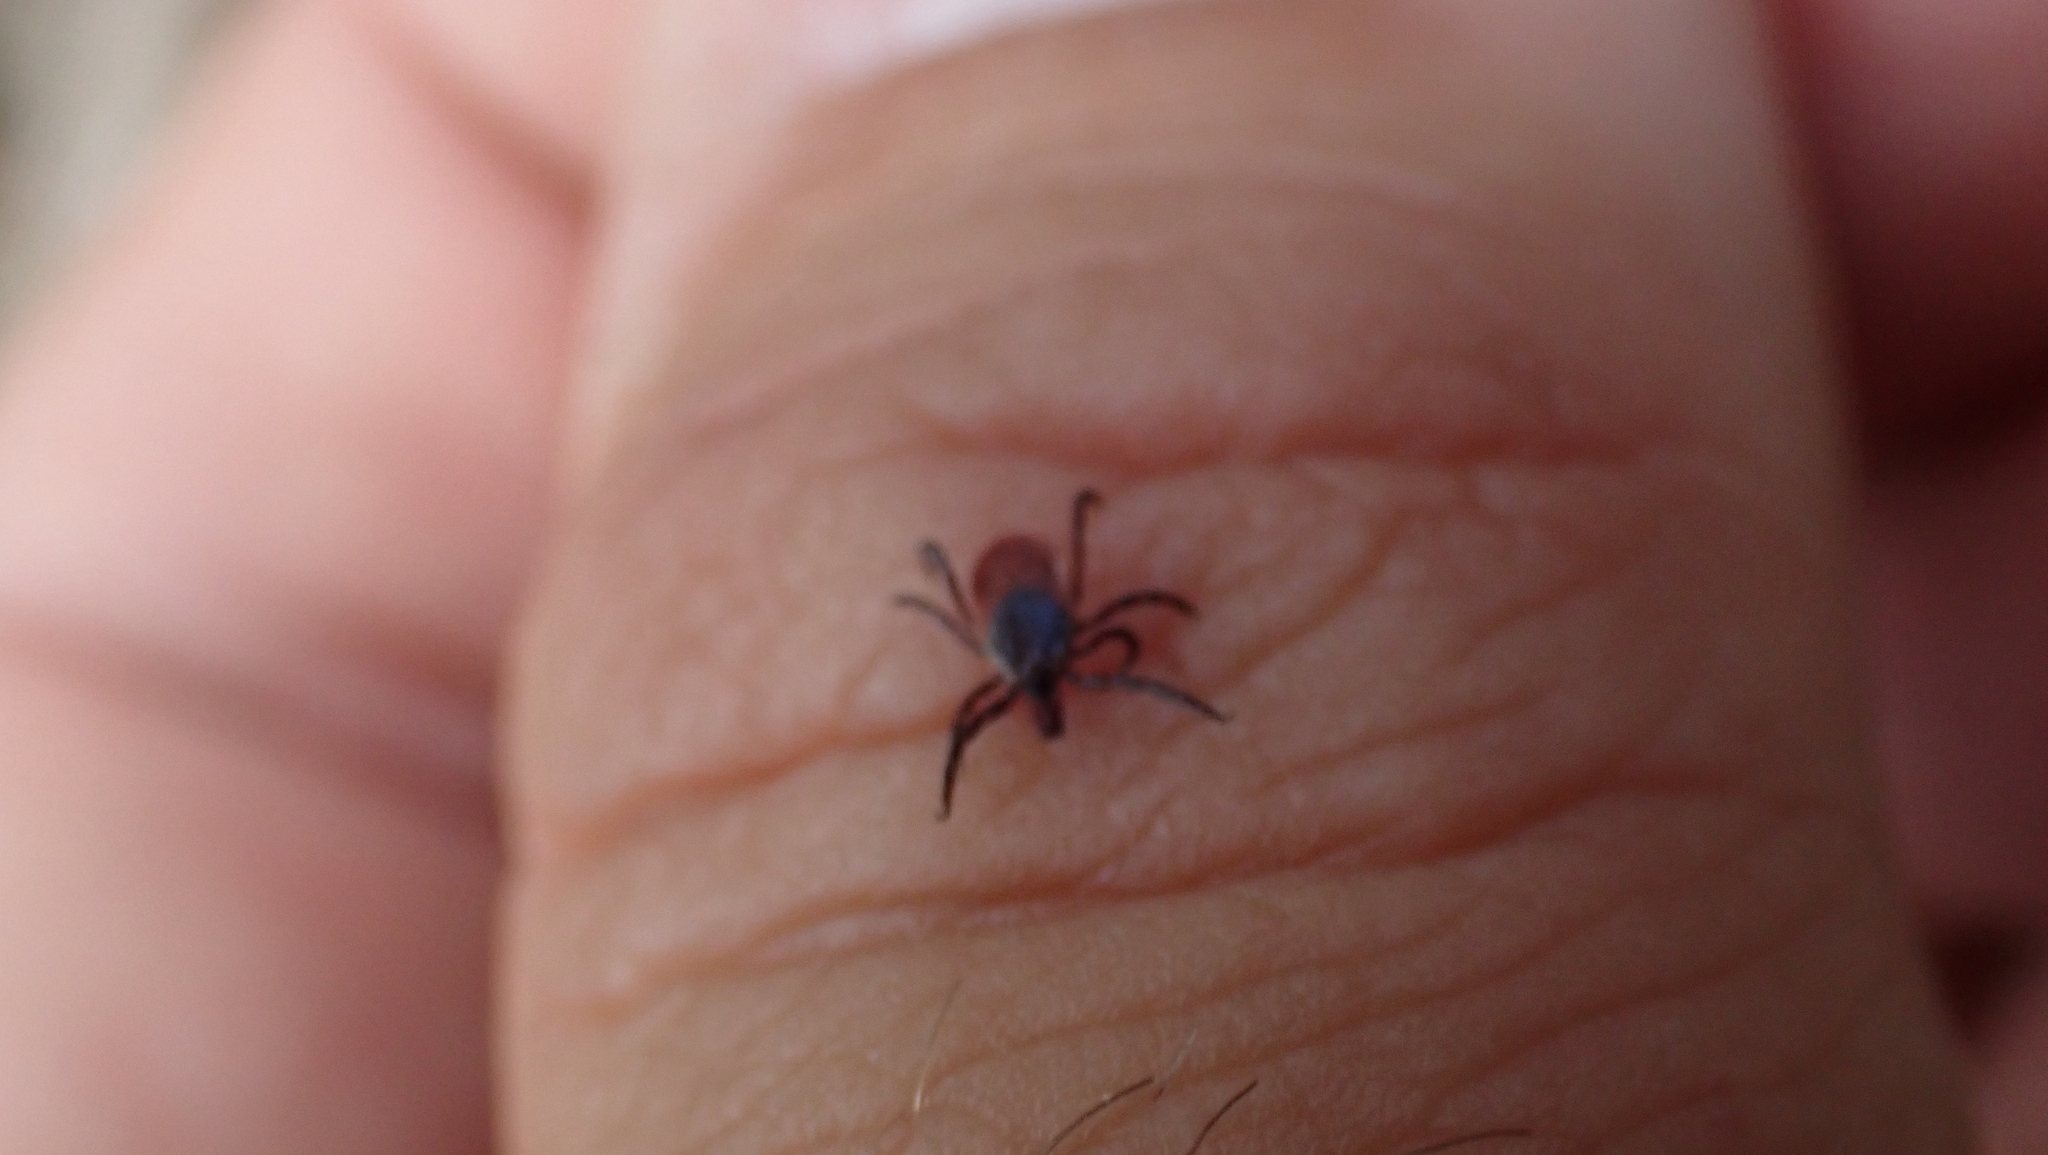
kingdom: Animalia
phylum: Arthropoda
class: Arachnida
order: Ixodida
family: Ixodidae
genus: Ixodes
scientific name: Ixodes scapularis
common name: Black legged tick
